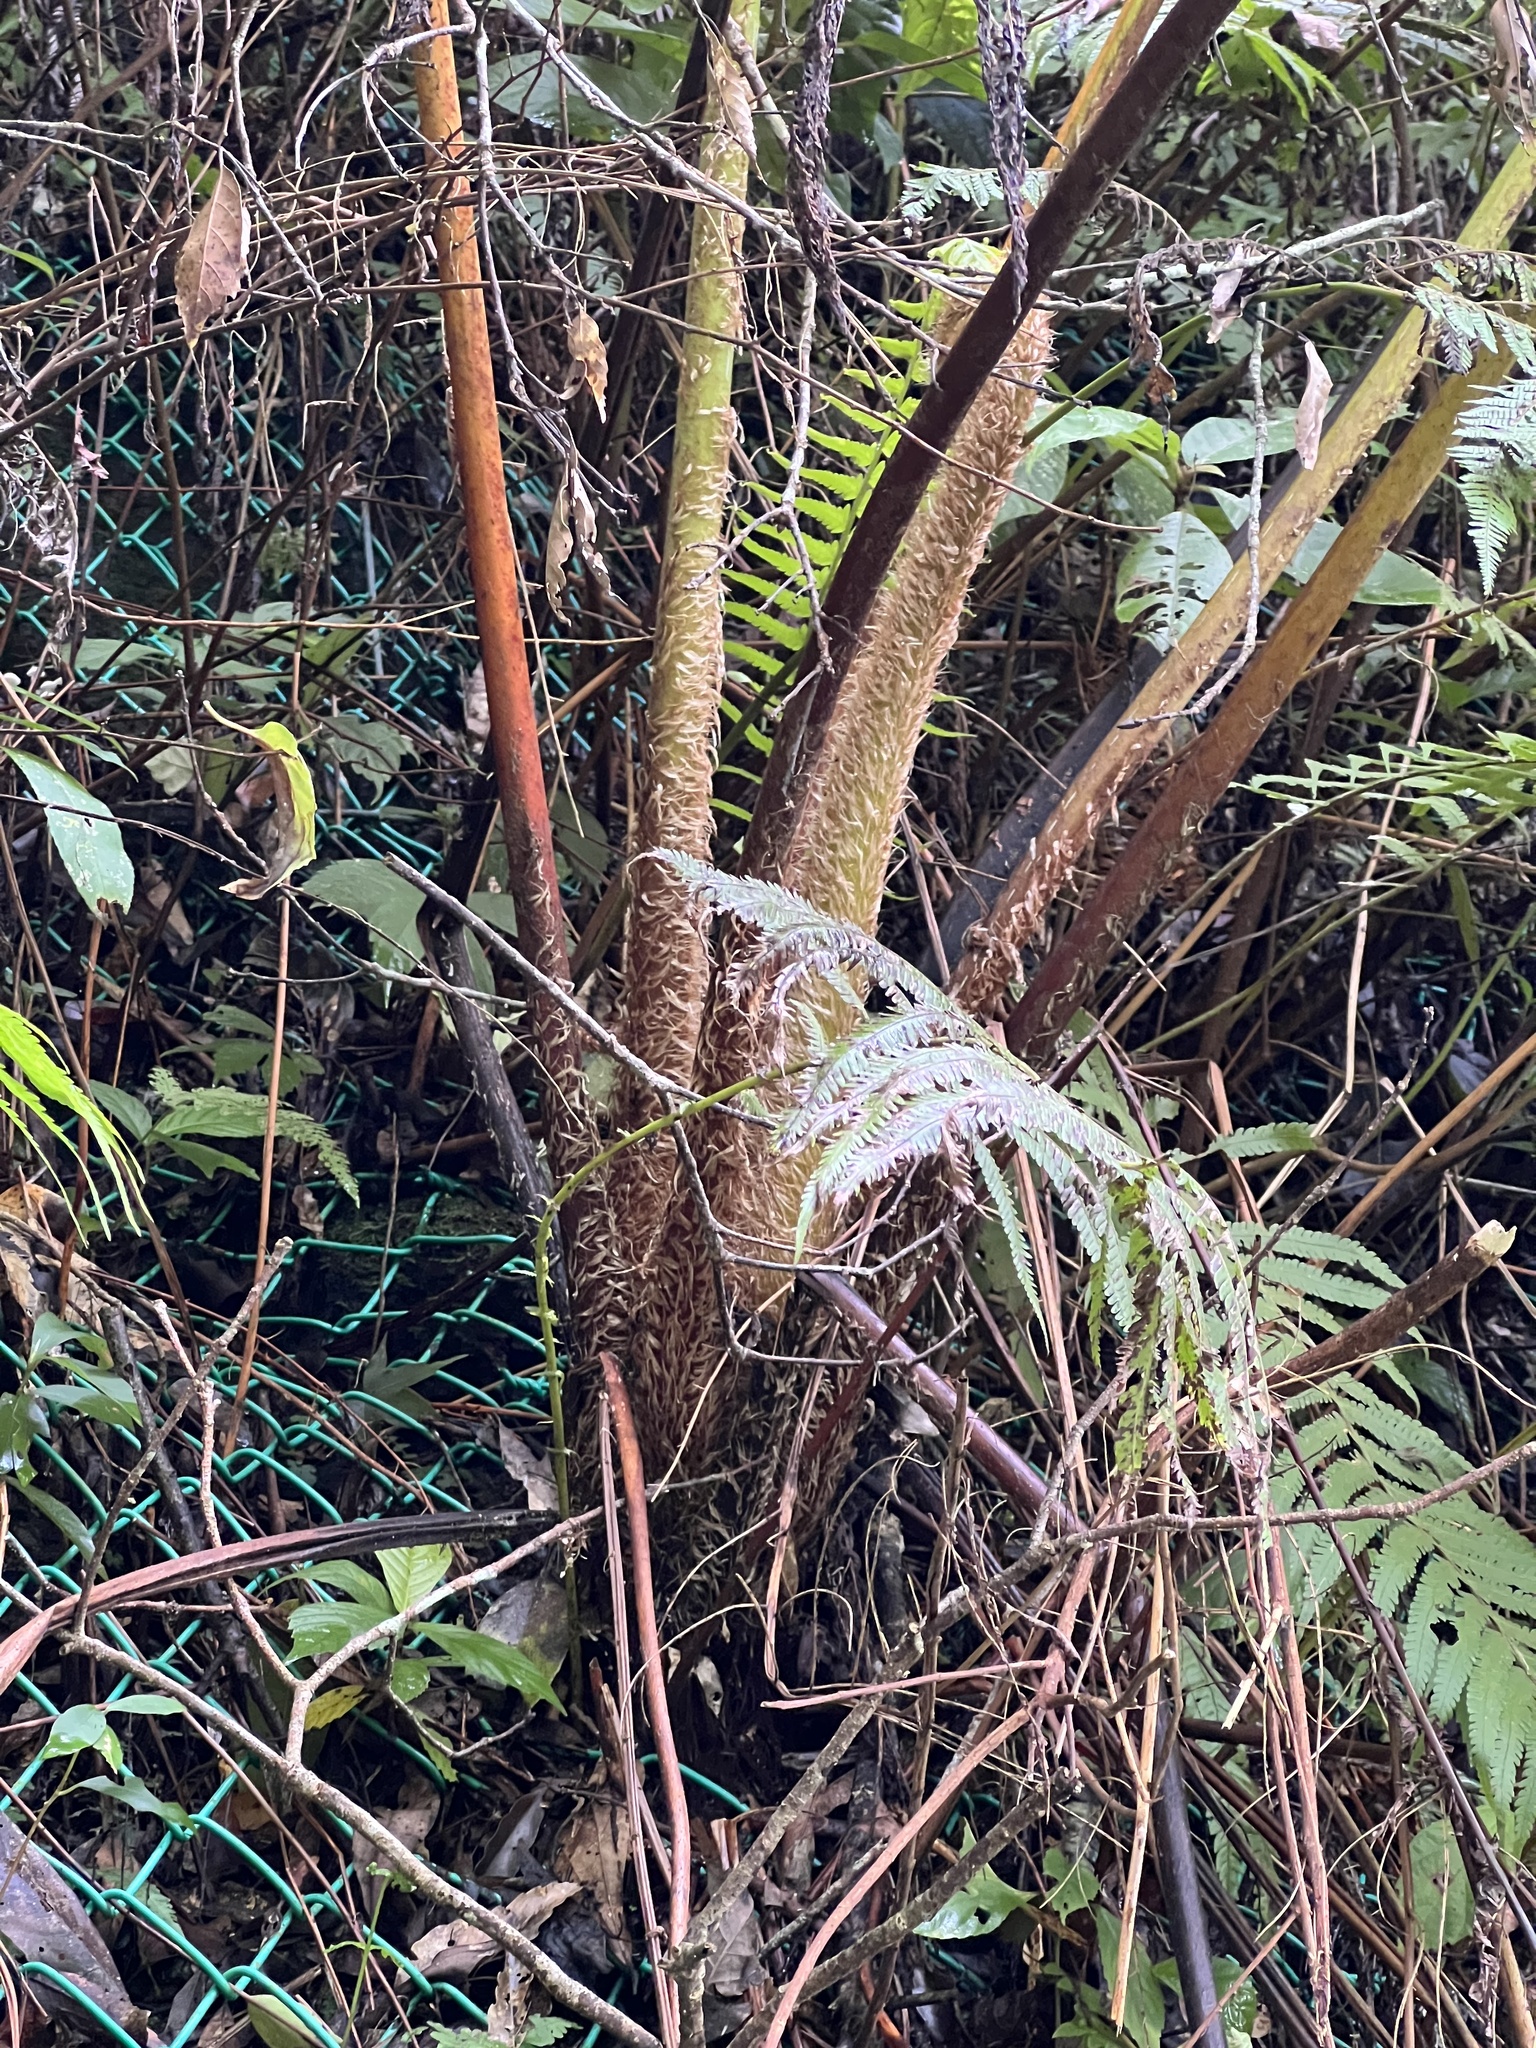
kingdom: Plantae
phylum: Tracheophyta
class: Polypodiopsida
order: Cyatheales
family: Cyatheaceae
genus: Alsophila
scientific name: Alsophila lepifera
